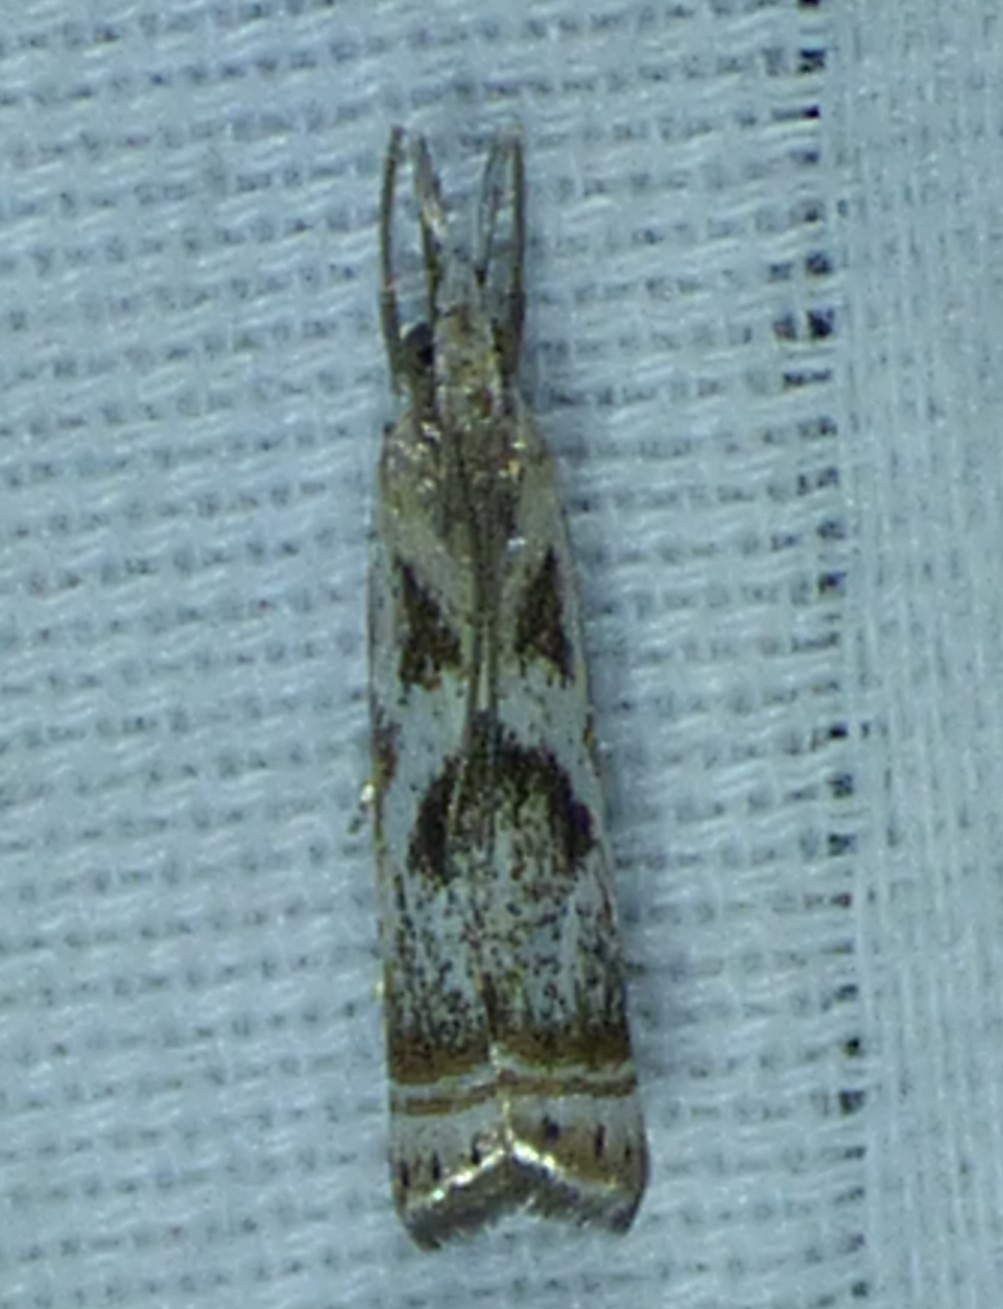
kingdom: Animalia
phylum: Arthropoda
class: Insecta
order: Lepidoptera
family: Crambidae
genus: Microcrambus
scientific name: Microcrambus elegans
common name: Elegant grass-veneer
